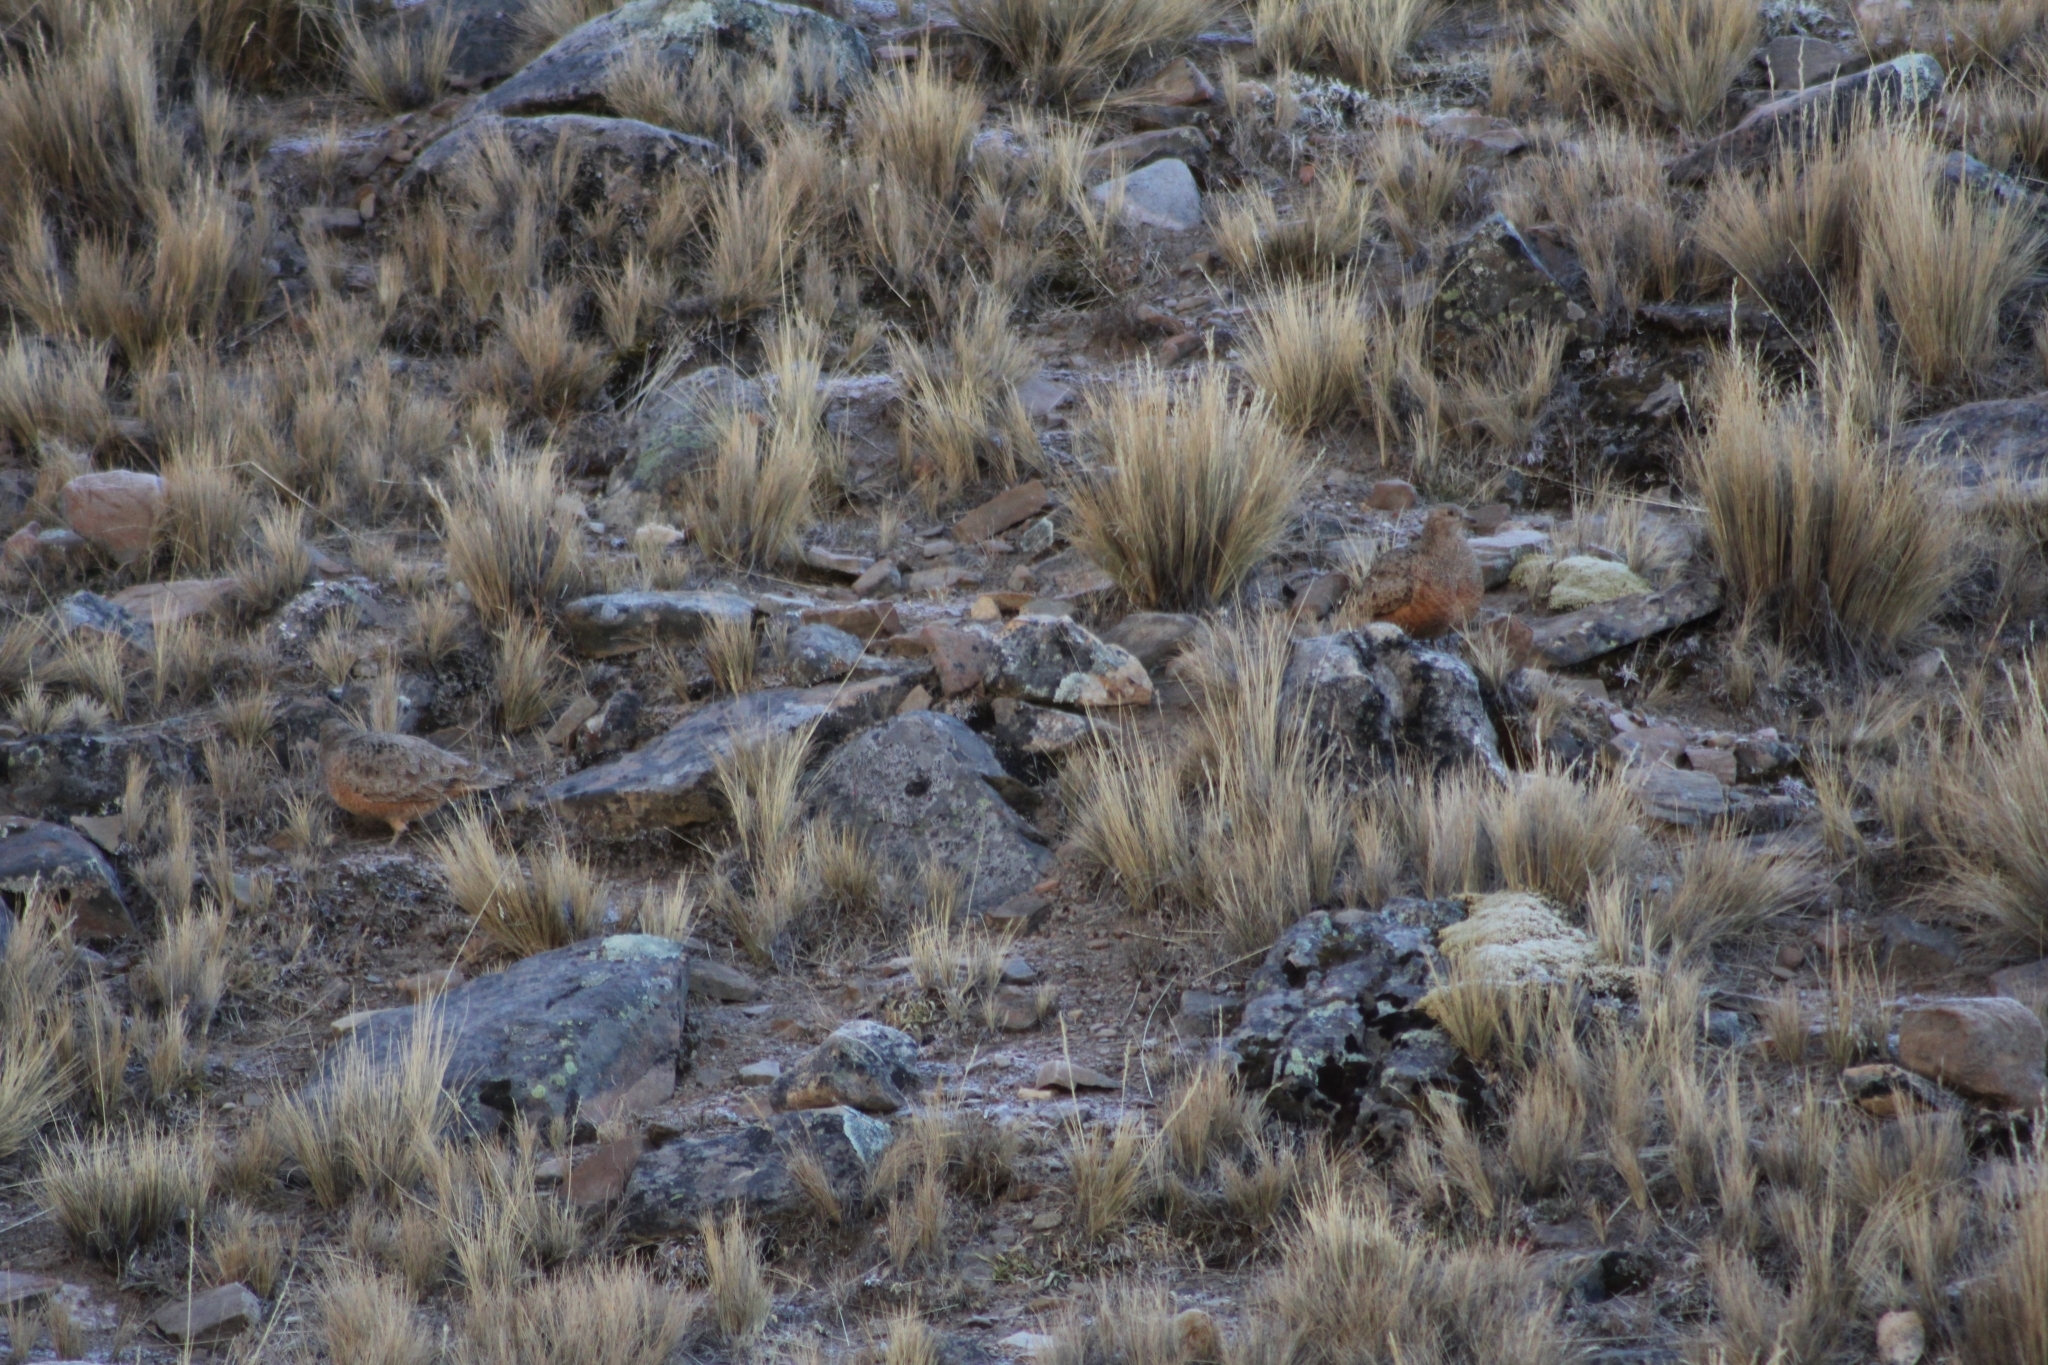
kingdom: Animalia
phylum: Chordata
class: Aves
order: Charadriiformes
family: Thinocoridae
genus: Attagis
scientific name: Attagis gayi
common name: Rufous-bellied seedsnipe
